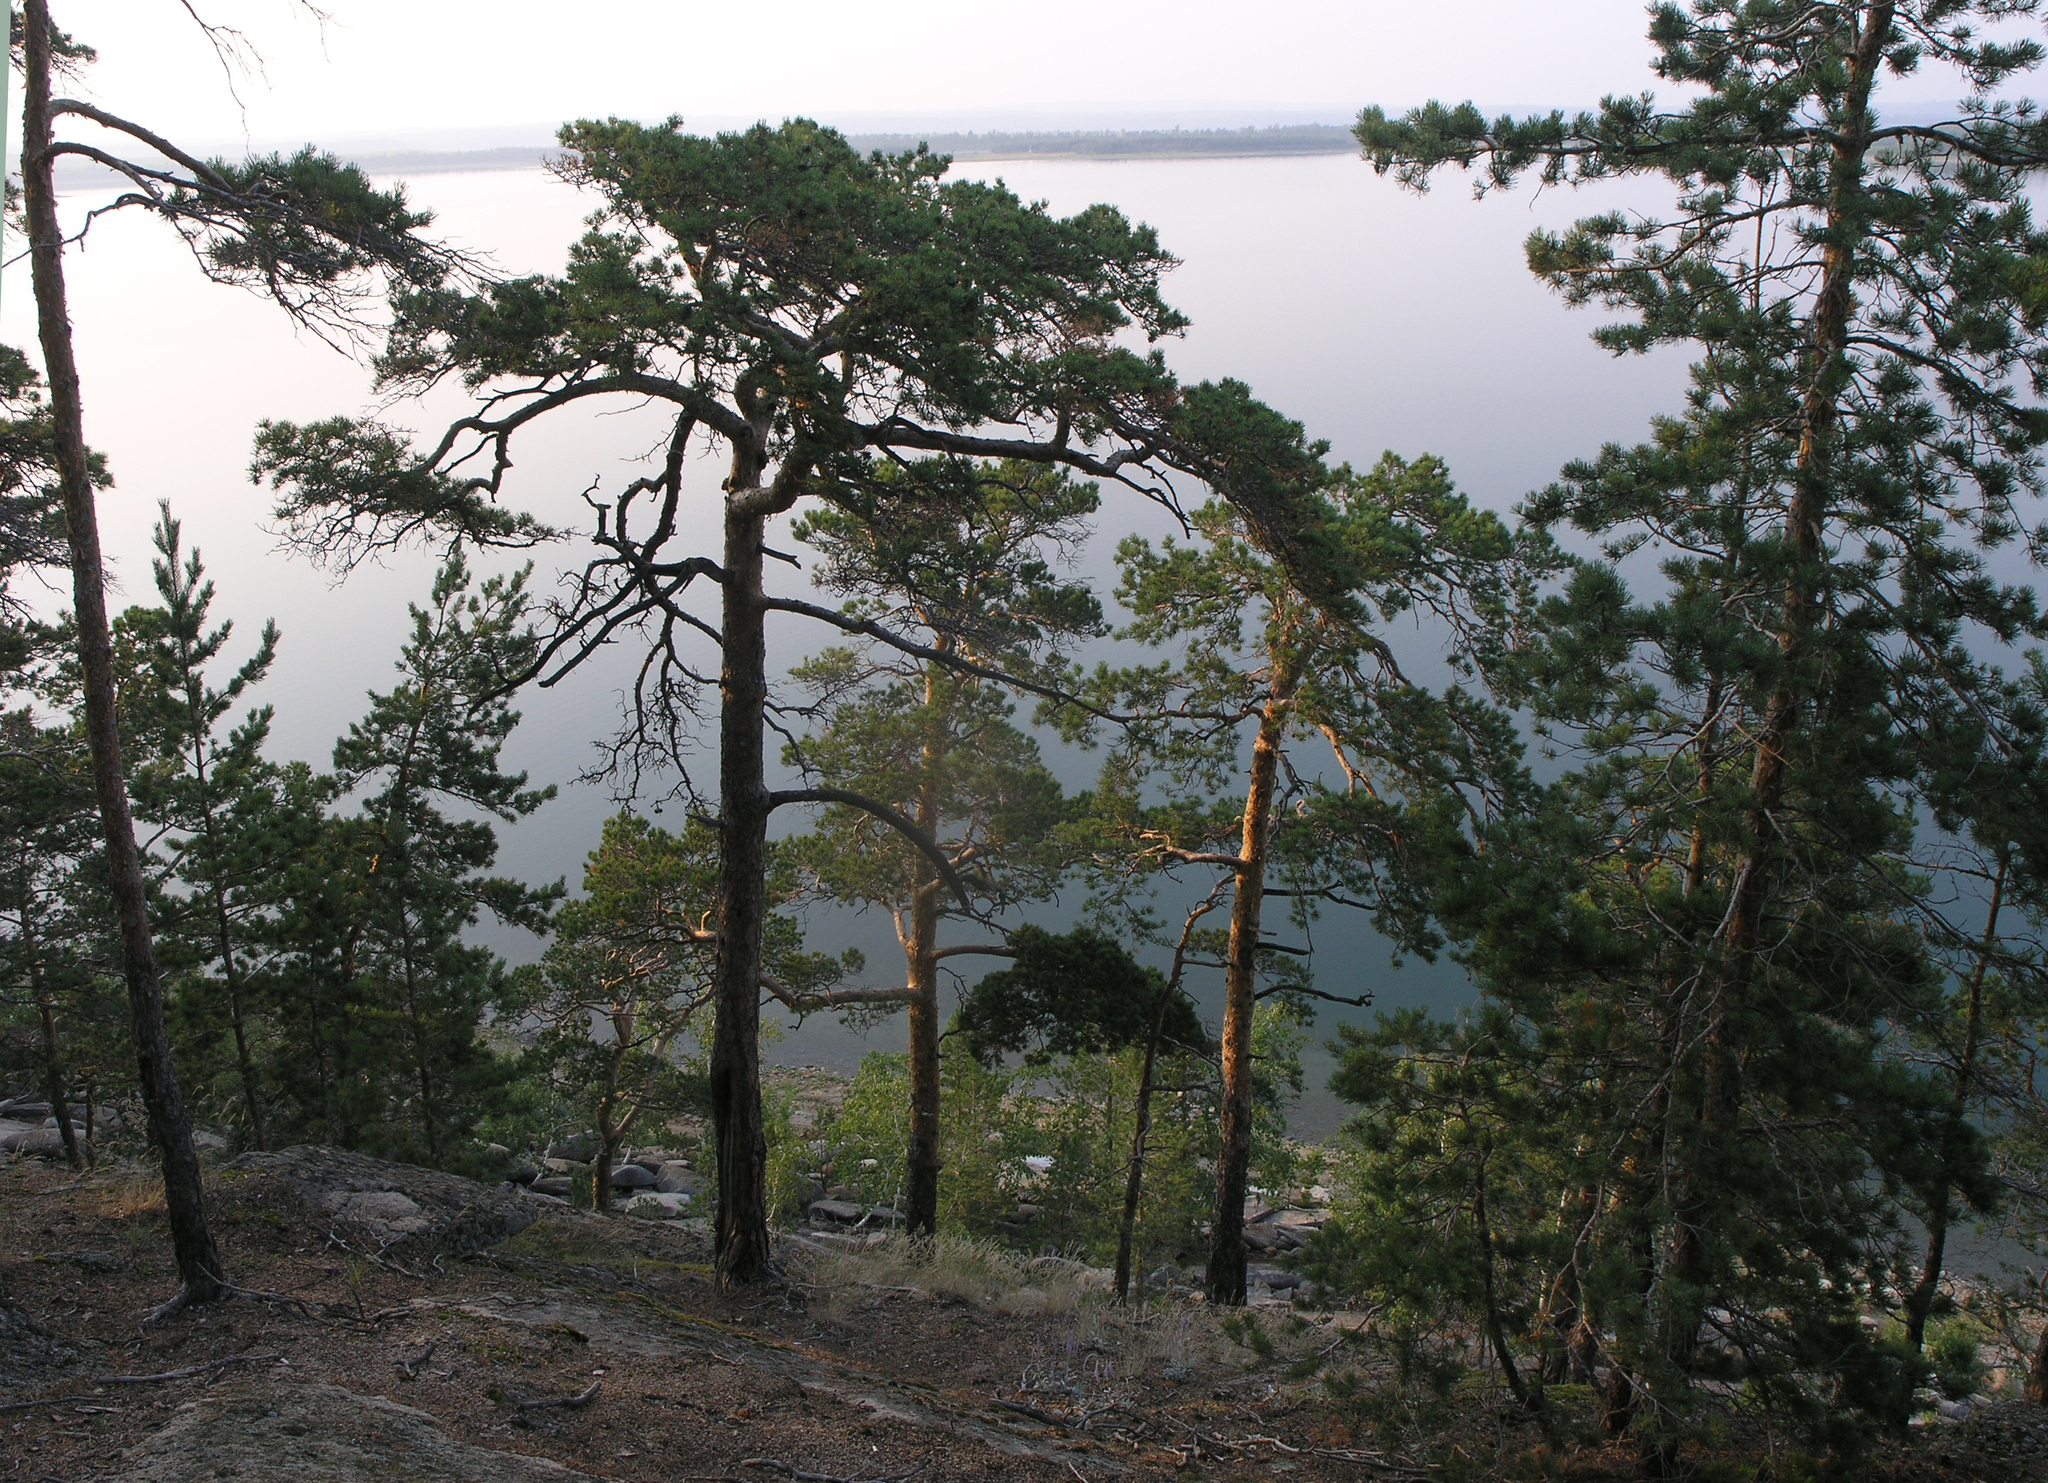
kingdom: Plantae
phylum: Tracheophyta
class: Pinopsida
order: Pinales
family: Pinaceae
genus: Pinus
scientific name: Pinus sylvestris
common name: Scots pine
